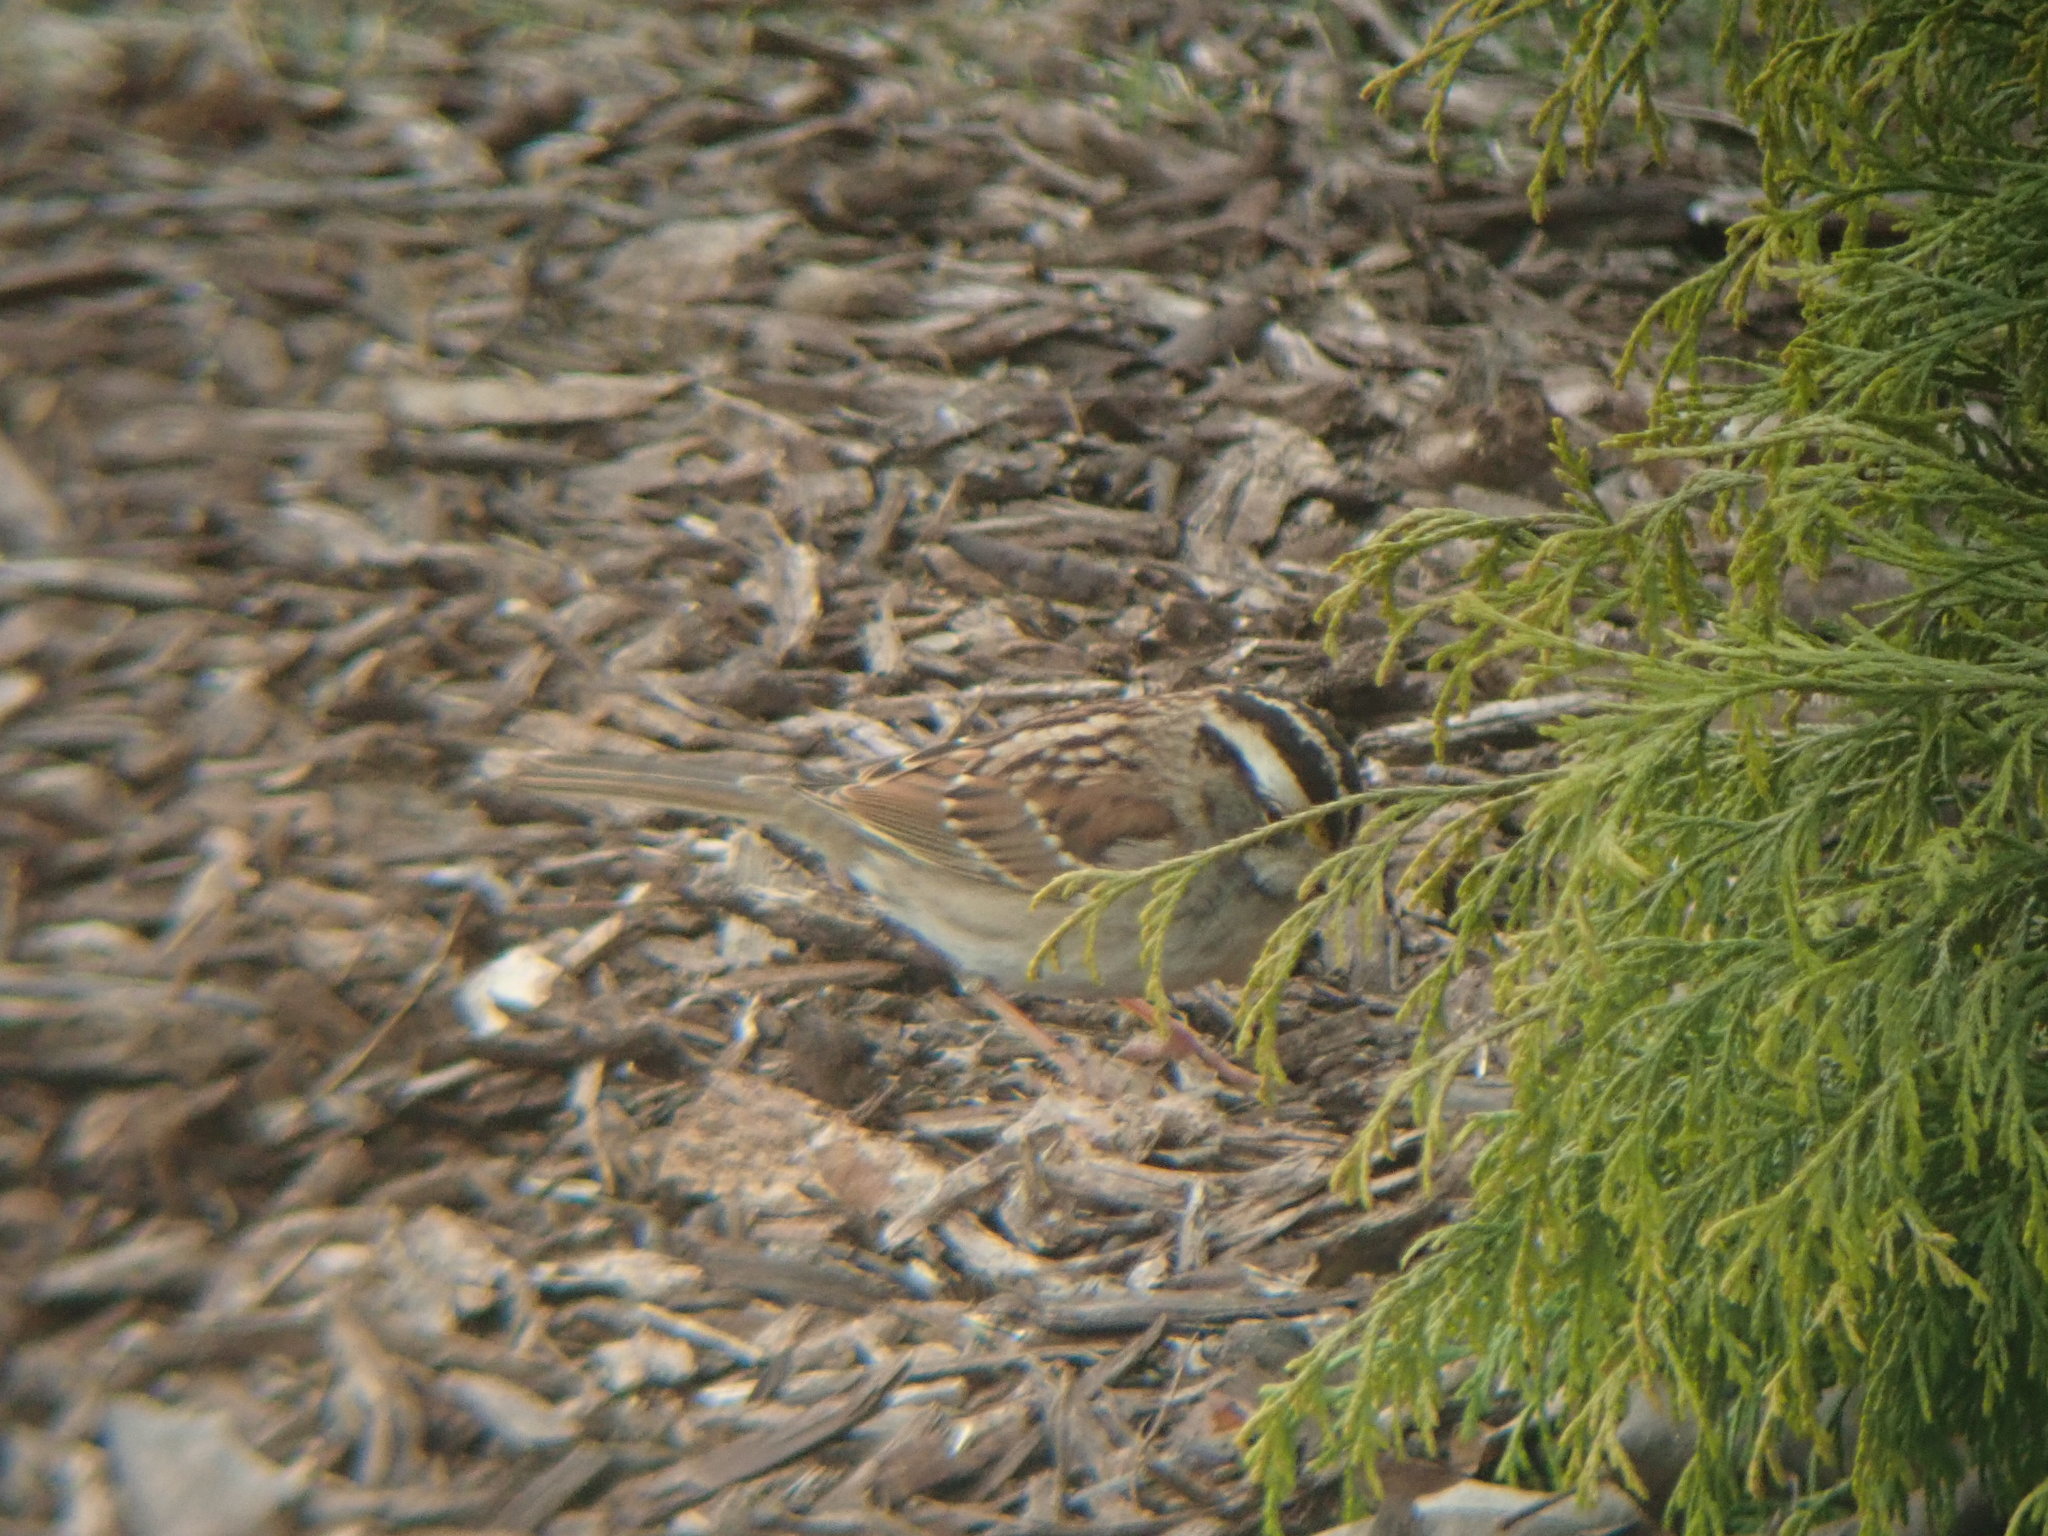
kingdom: Animalia
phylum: Chordata
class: Aves
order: Passeriformes
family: Passerellidae
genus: Zonotrichia
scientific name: Zonotrichia albicollis
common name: White-throated sparrow
